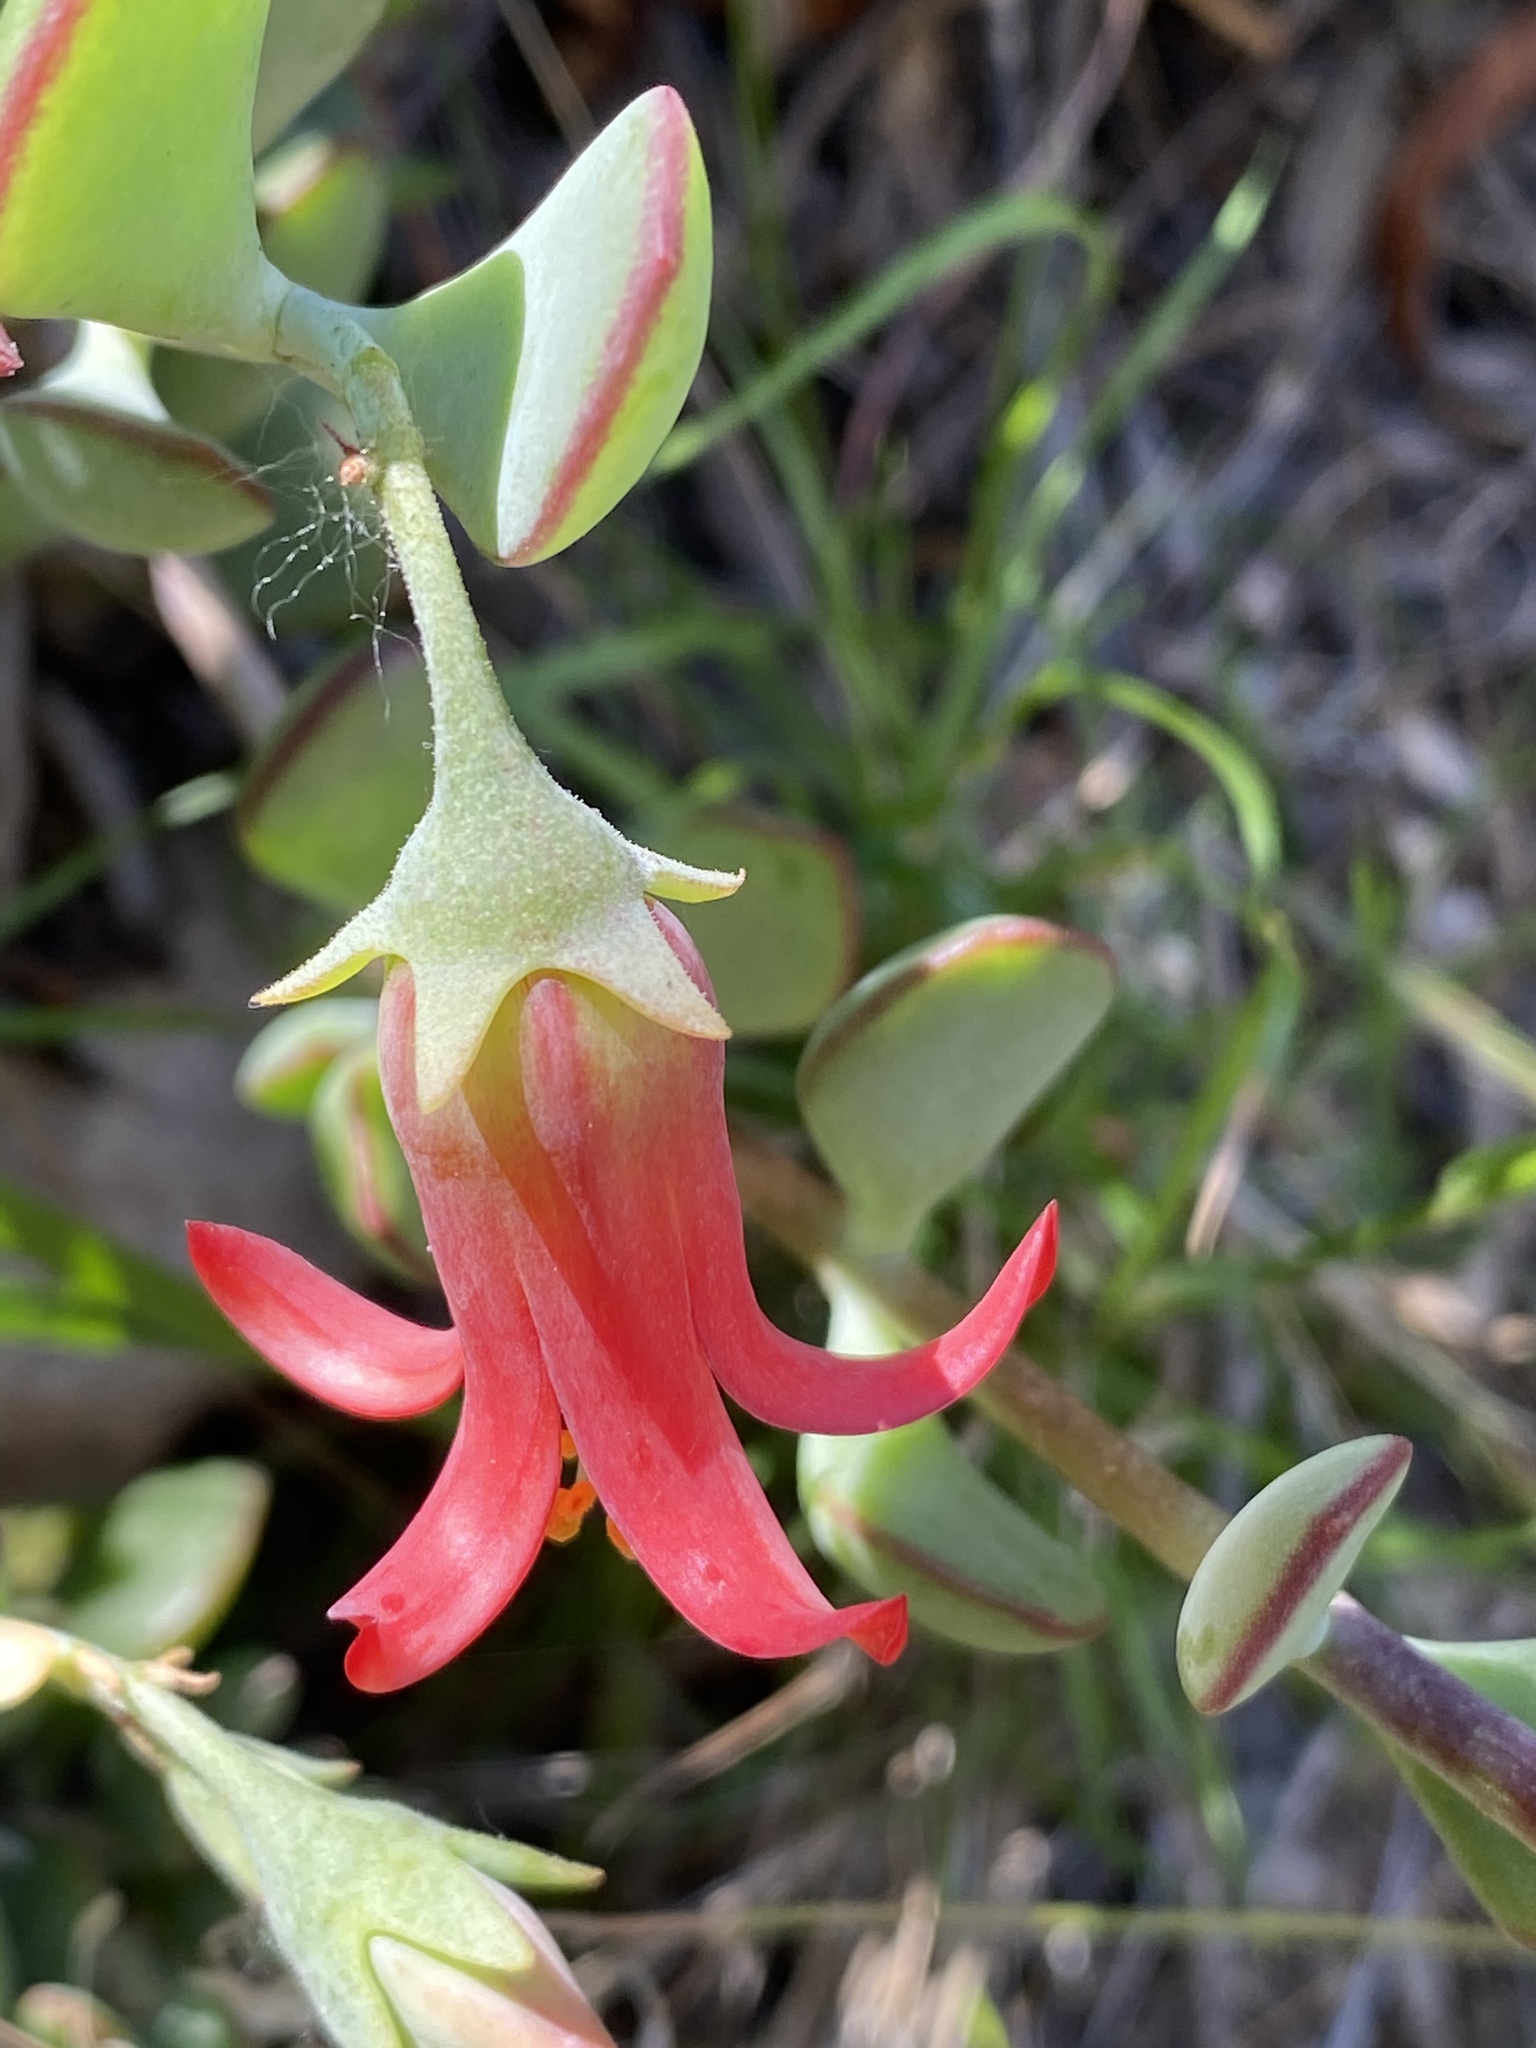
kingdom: Plantae
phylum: Tracheophyta
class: Magnoliopsida
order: Saxifragales
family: Crassulaceae
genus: Cotyledon
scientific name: Cotyledon woodii
